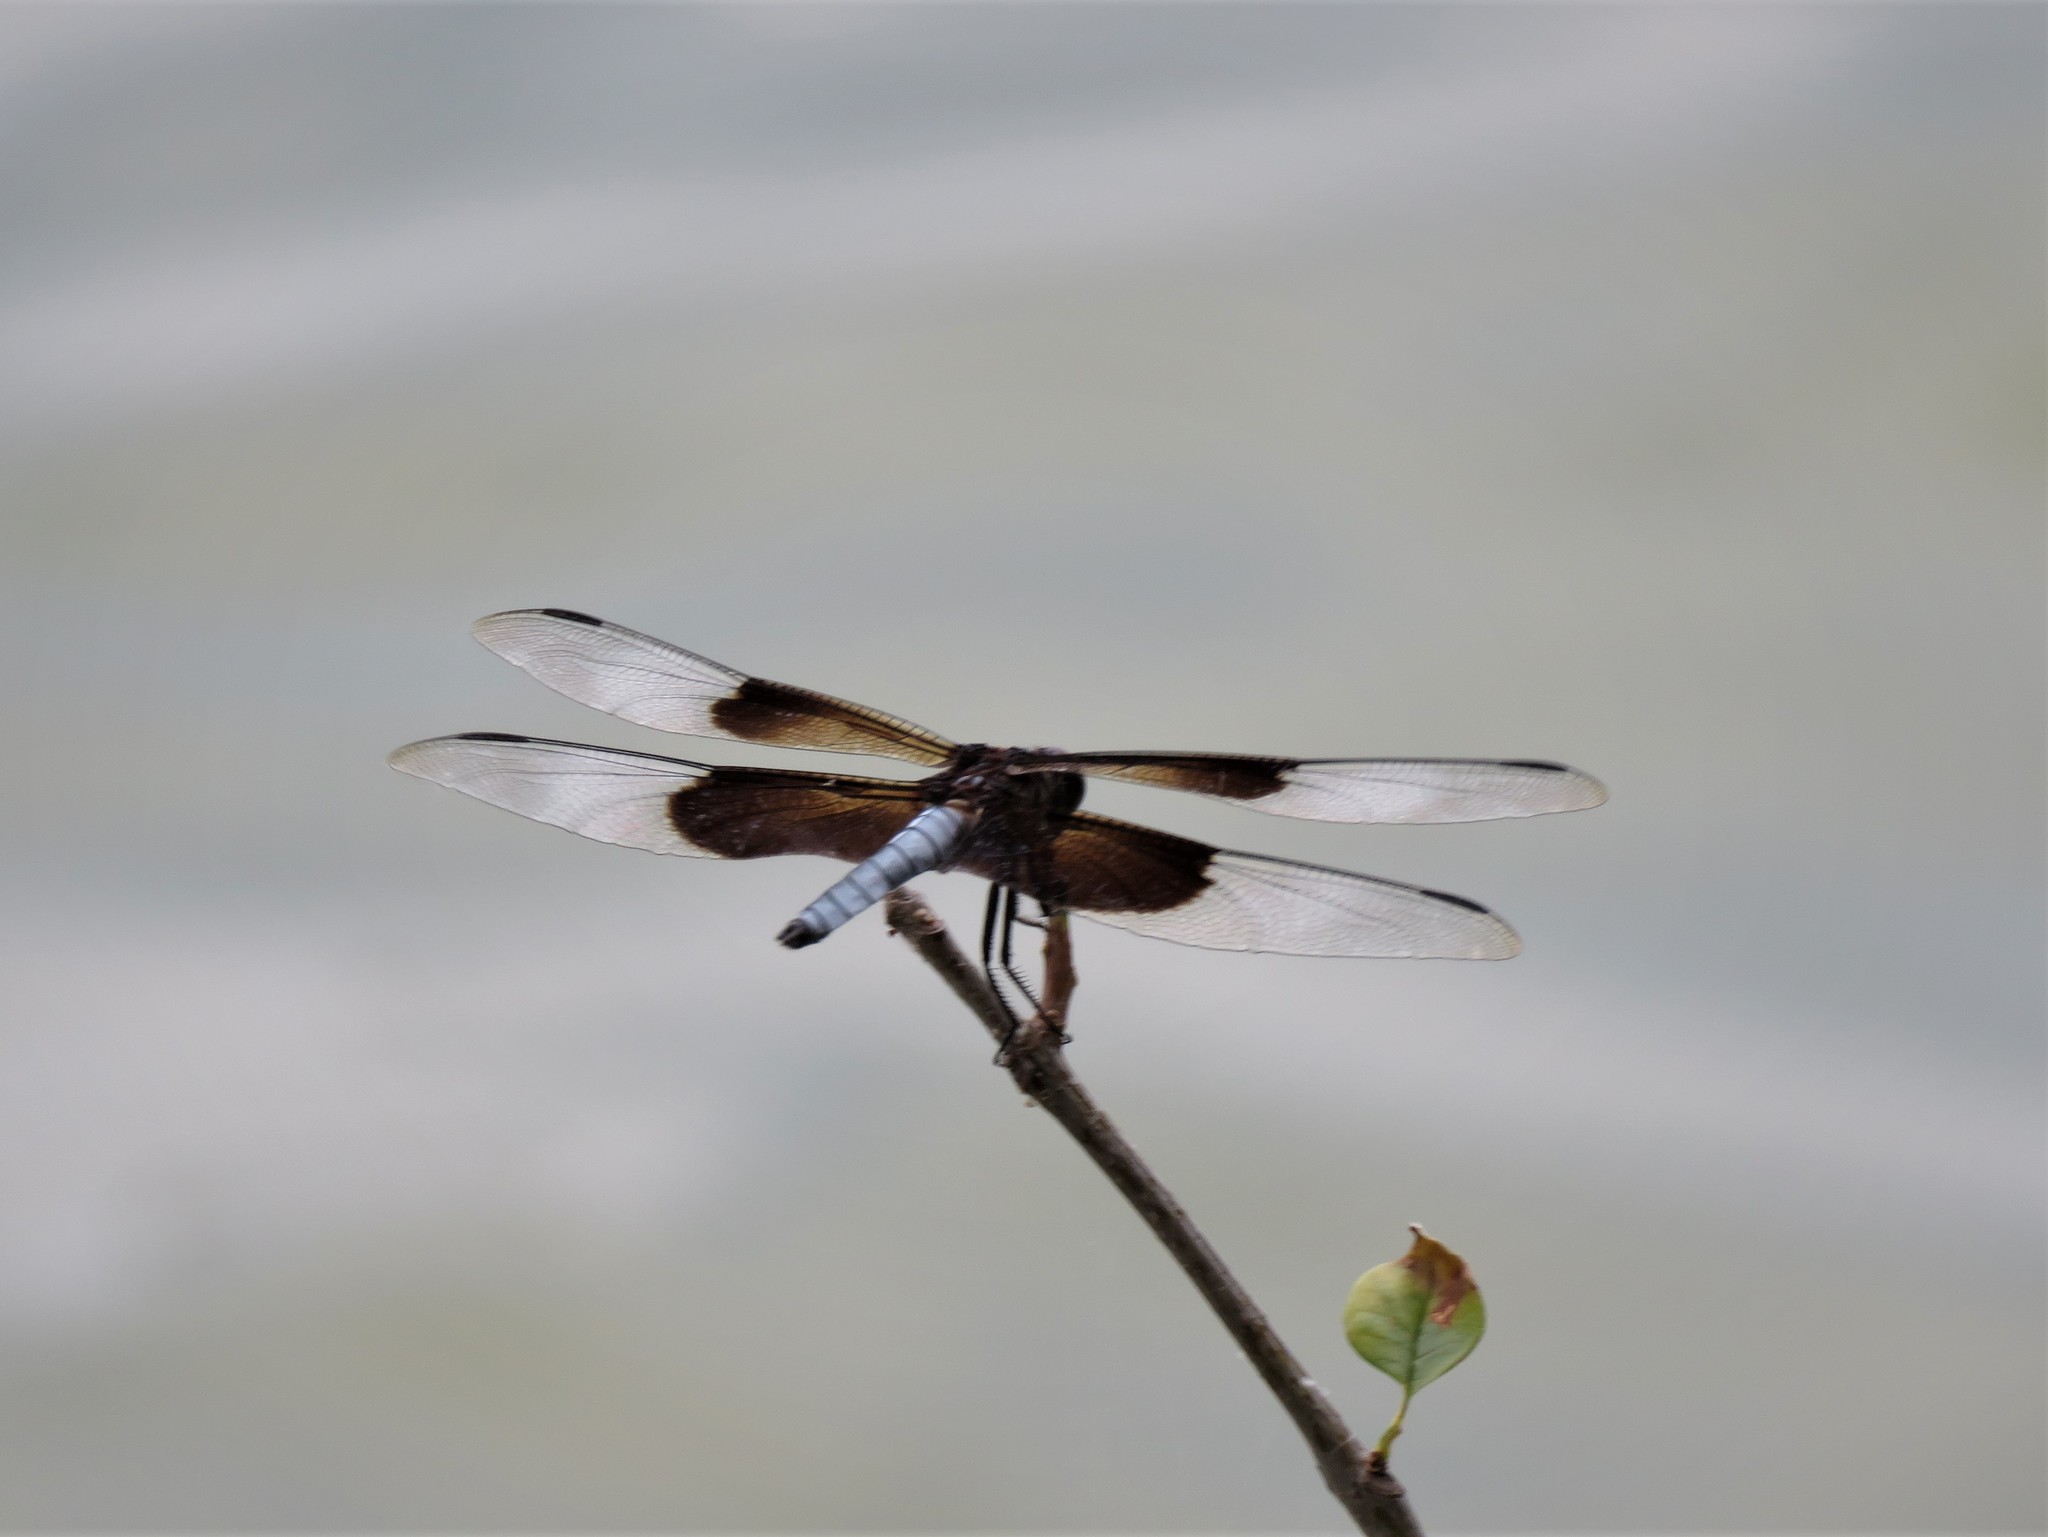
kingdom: Animalia
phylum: Arthropoda
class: Insecta
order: Odonata
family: Libellulidae
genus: Libellula
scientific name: Libellula luctuosa
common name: Widow skimmer
